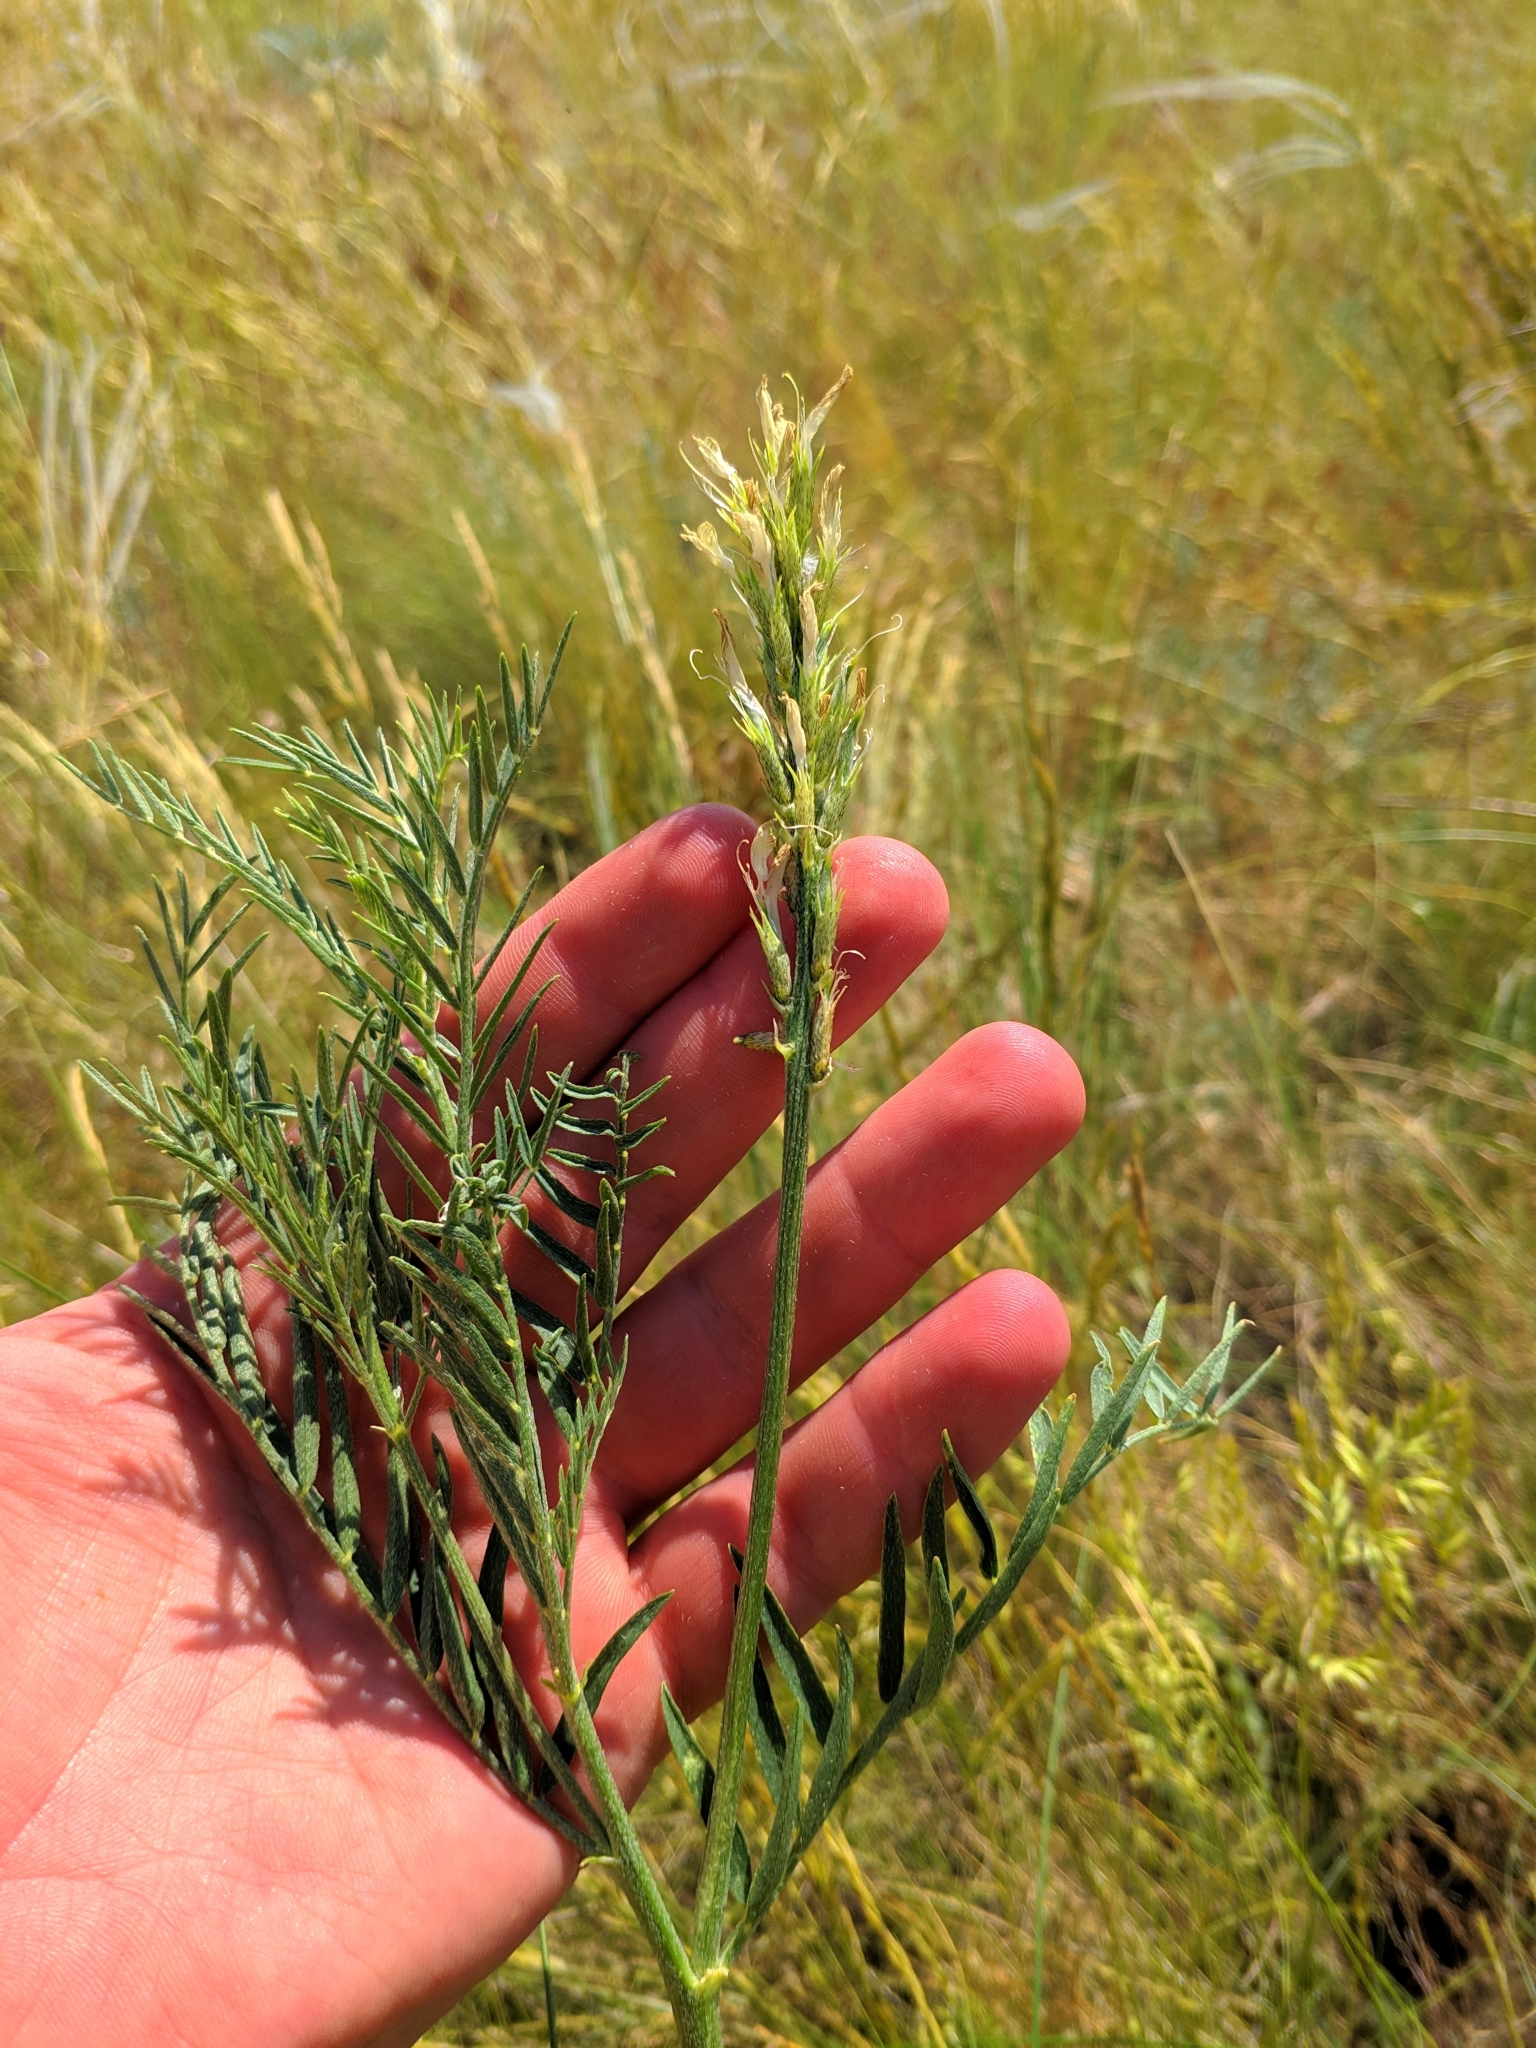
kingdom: Plantae
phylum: Tracheophyta
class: Magnoliopsida
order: Fabales
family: Fabaceae
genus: Astragalus
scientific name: Astragalus asper
